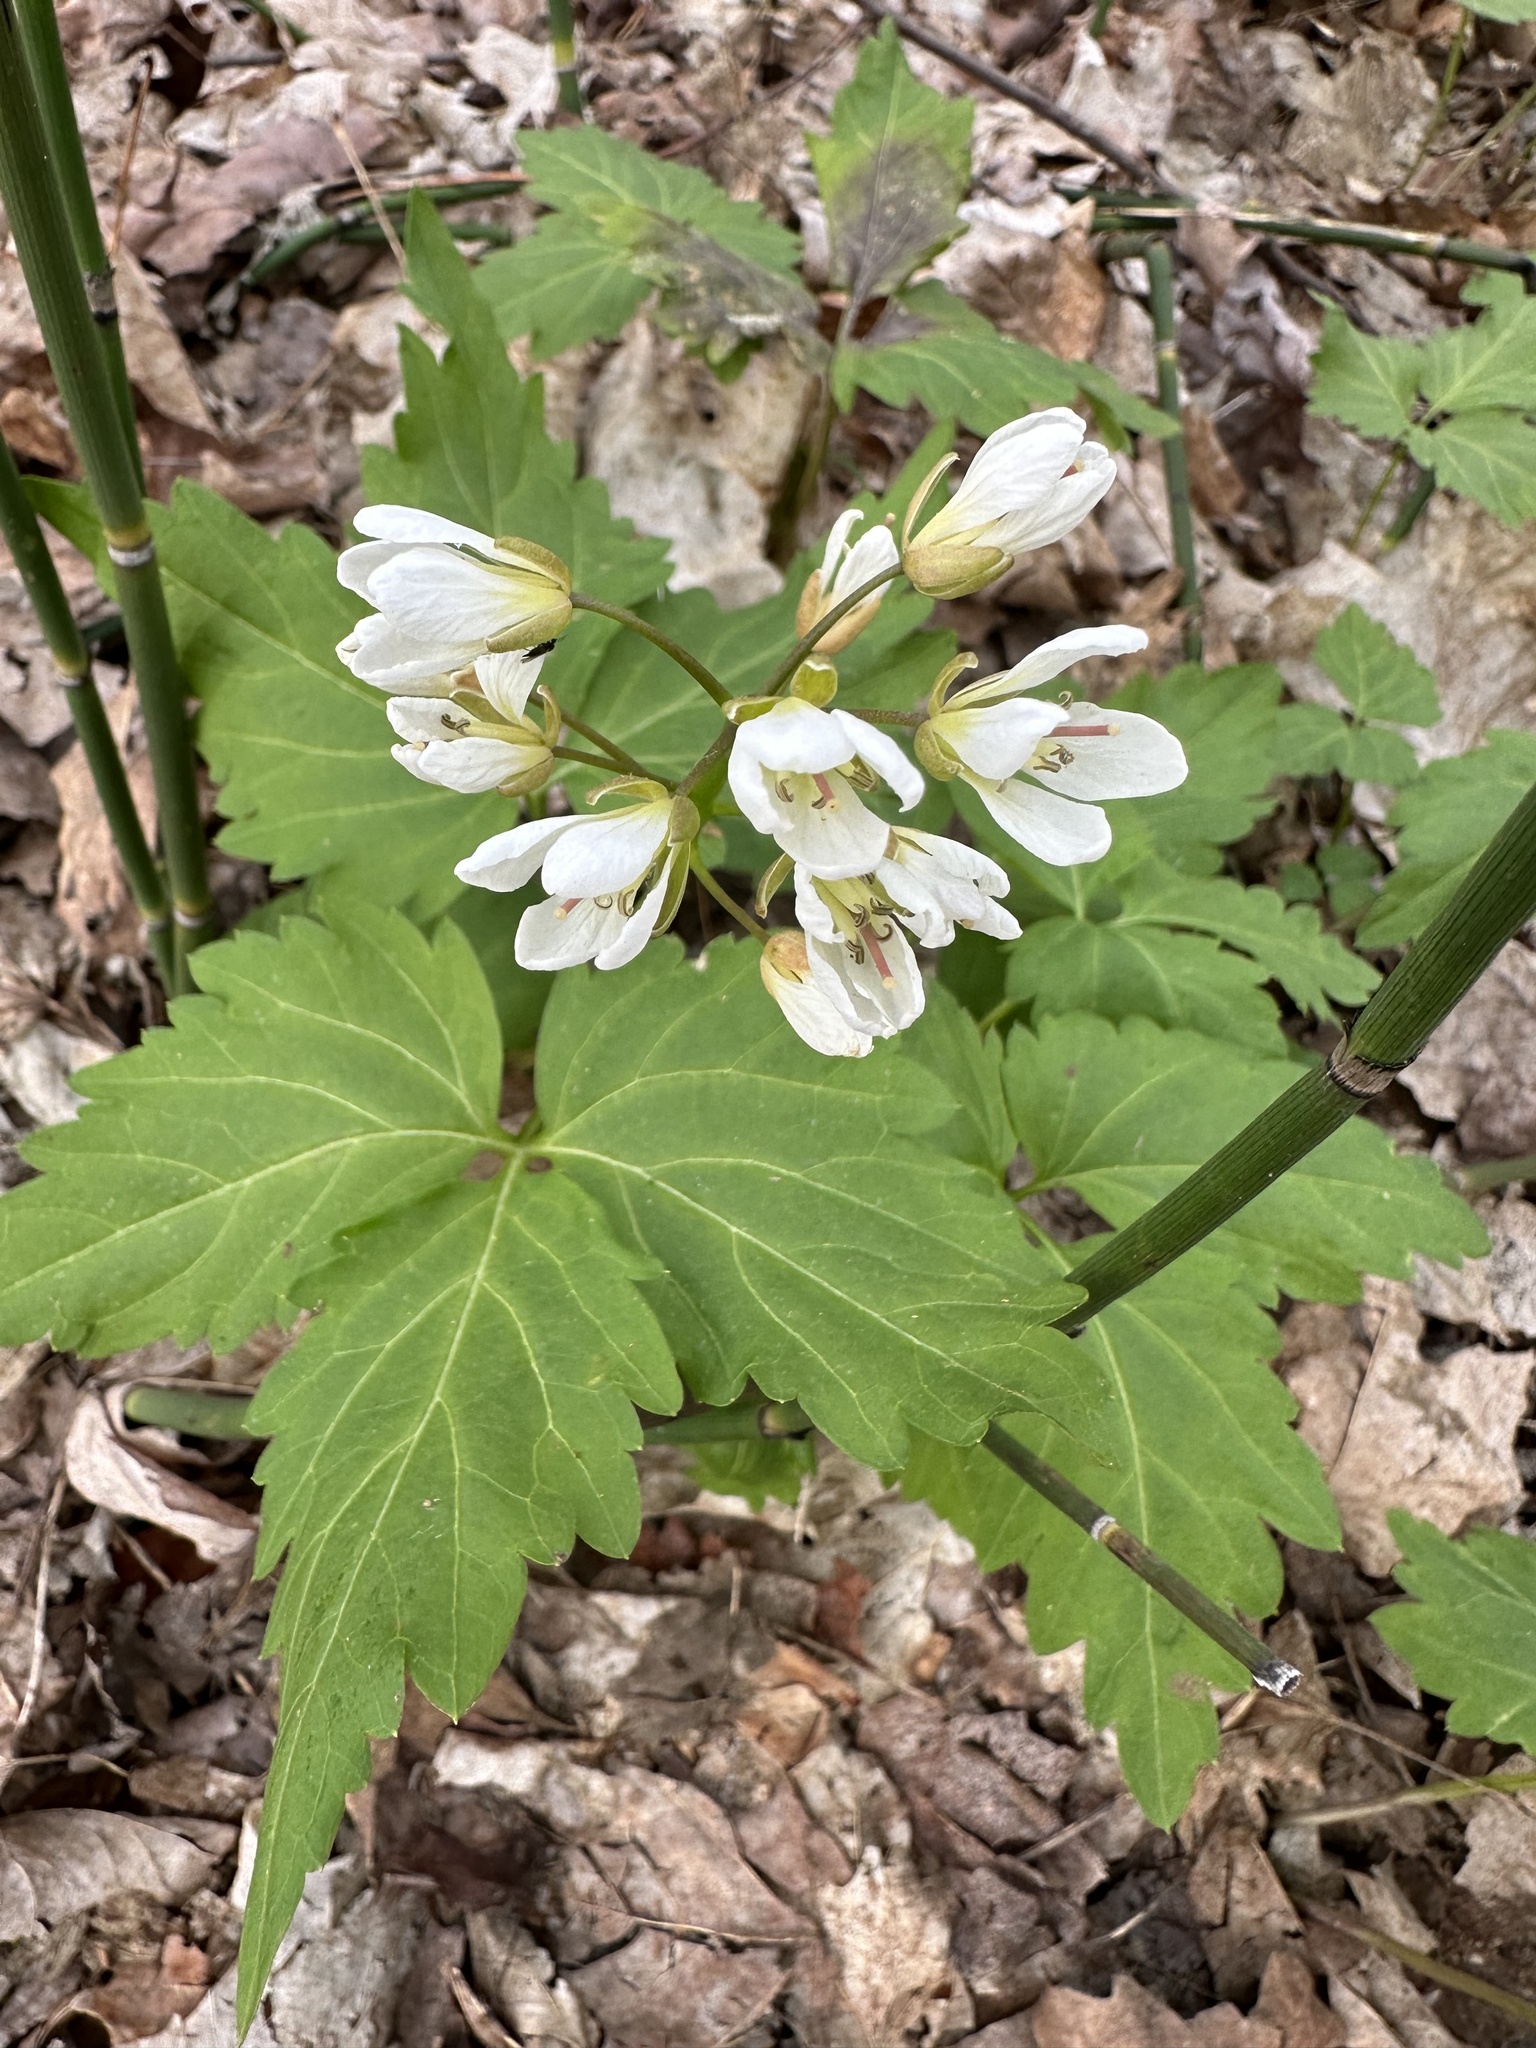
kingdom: Plantae
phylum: Tracheophyta
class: Magnoliopsida
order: Brassicales
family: Brassicaceae
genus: Cardamine
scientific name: Cardamine diphylla
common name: Broad-leaved toothwort
